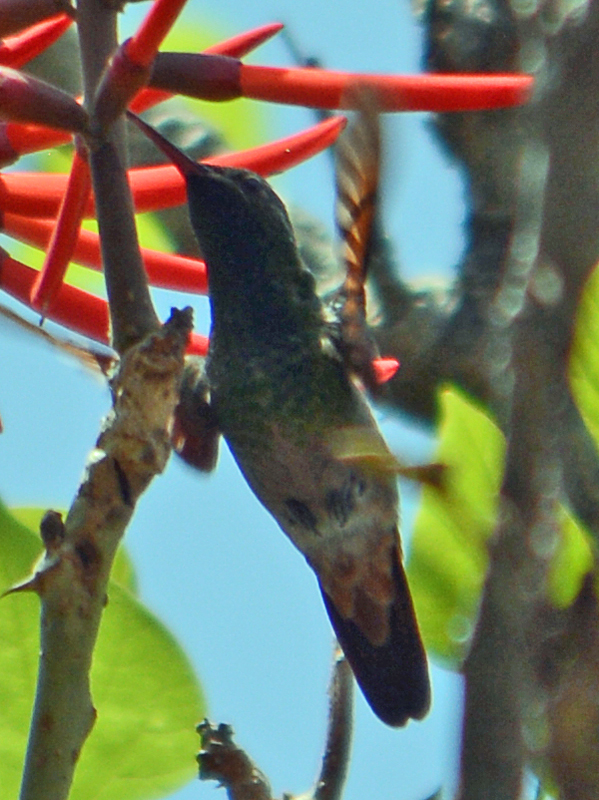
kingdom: Animalia
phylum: Chordata
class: Aves
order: Apodiformes
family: Trochilidae
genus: Saucerottia
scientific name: Saucerottia beryllina
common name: Berylline hummingbird
